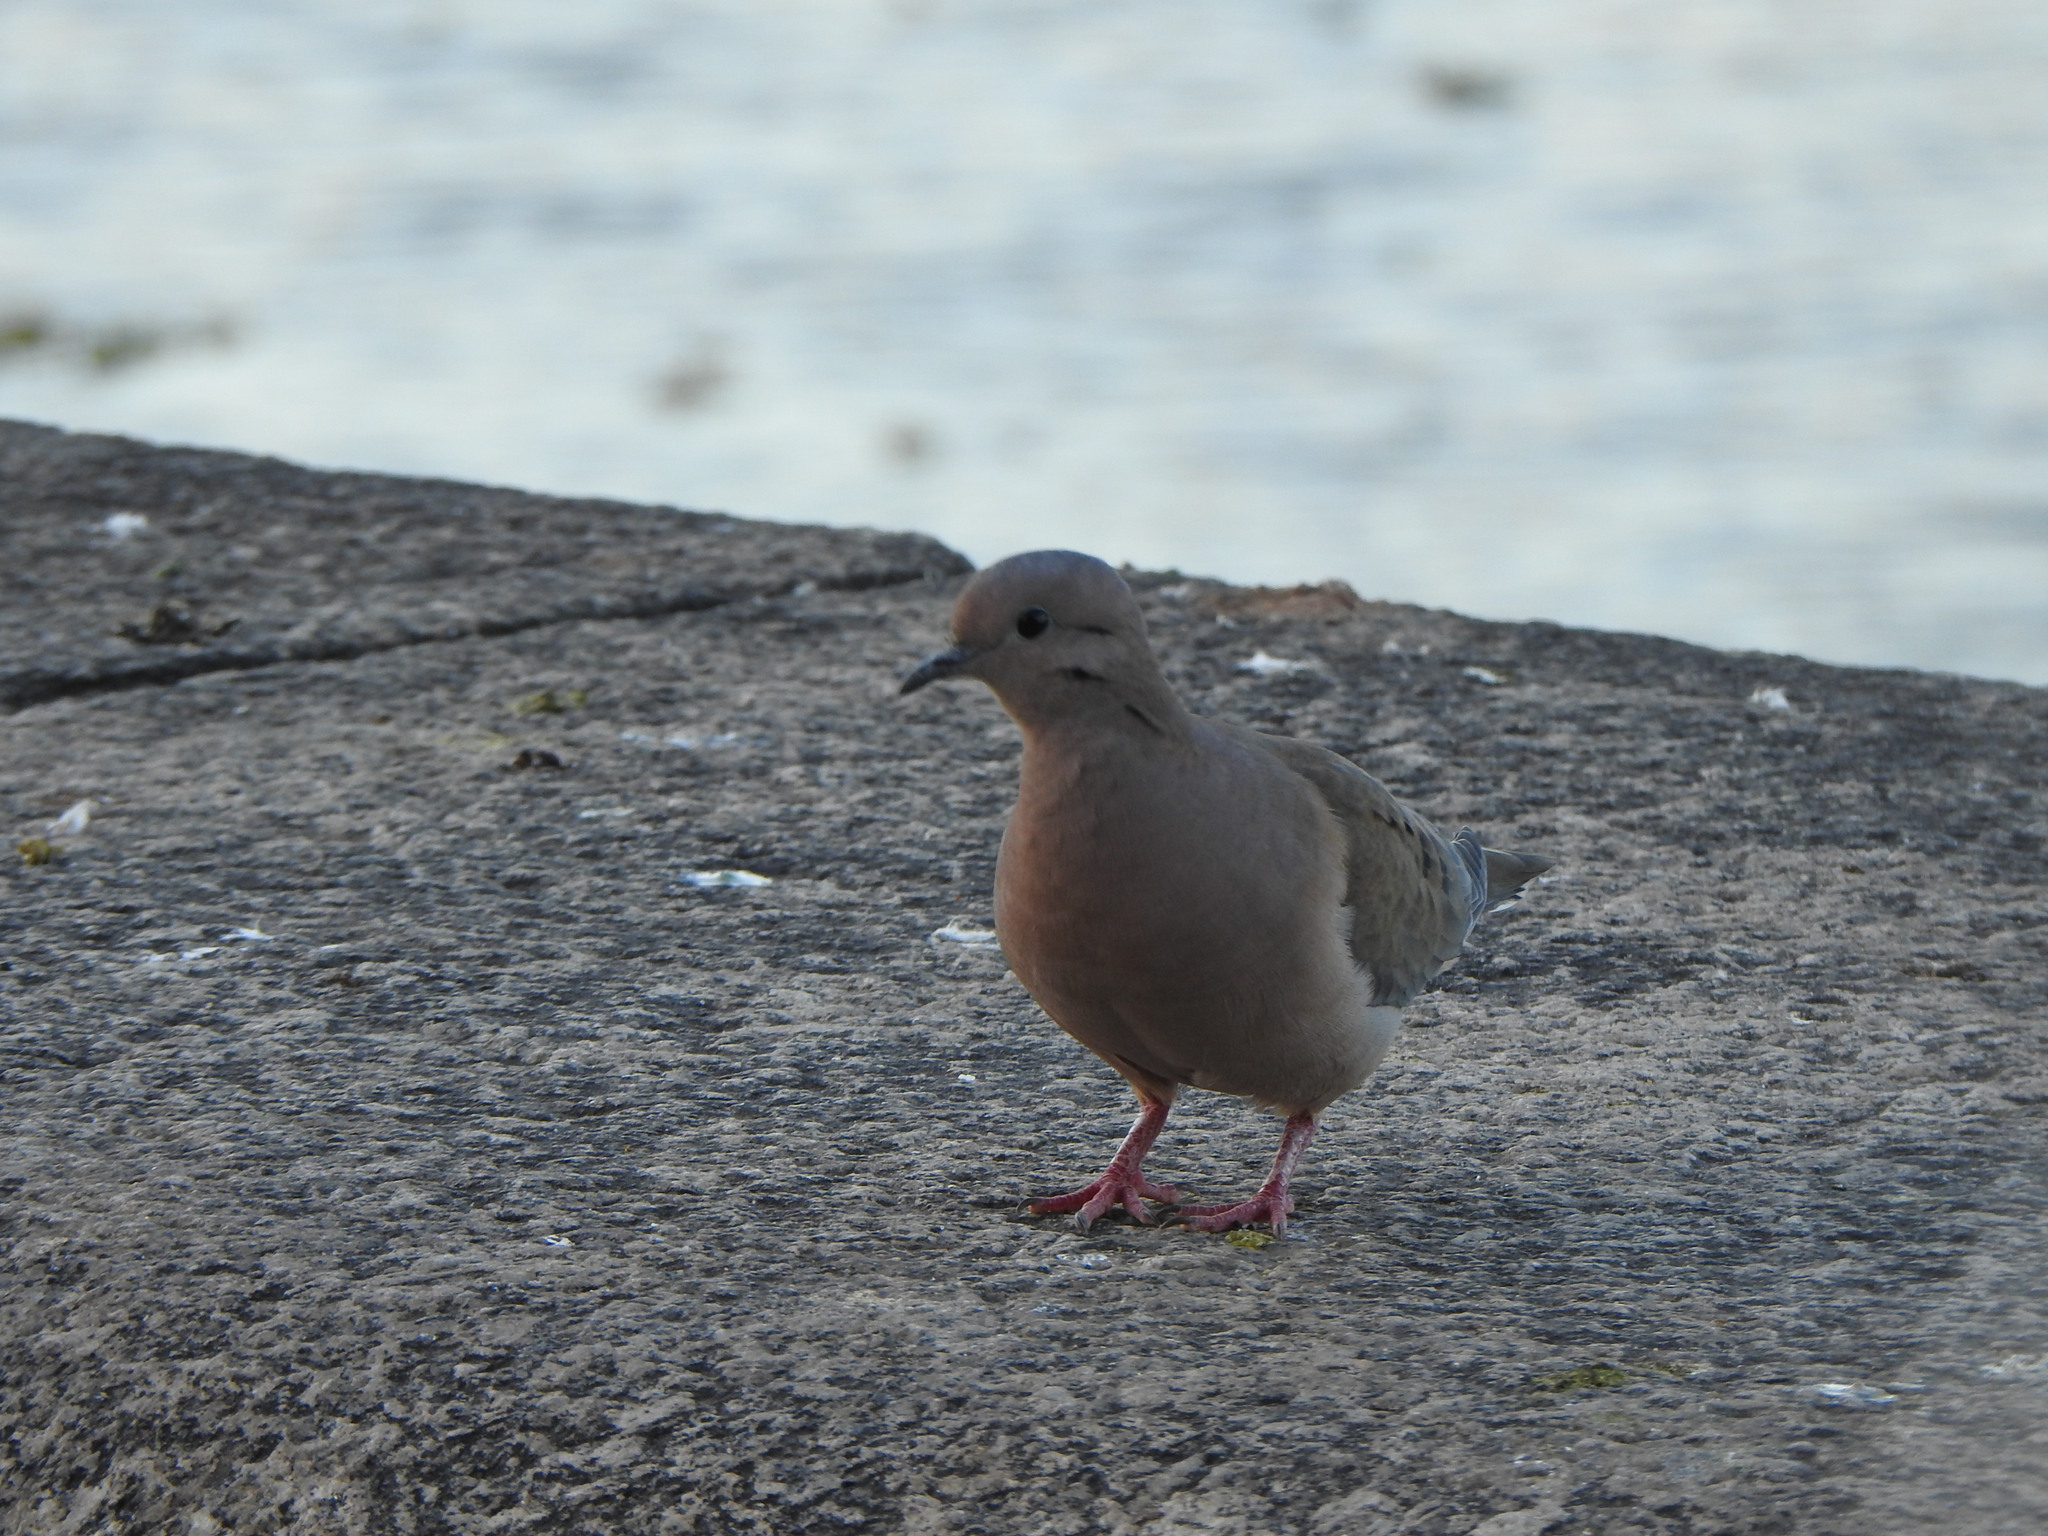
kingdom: Animalia
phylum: Chordata
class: Aves
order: Columbiformes
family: Columbidae
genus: Zenaida
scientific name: Zenaida auriculata
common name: Eared dove
